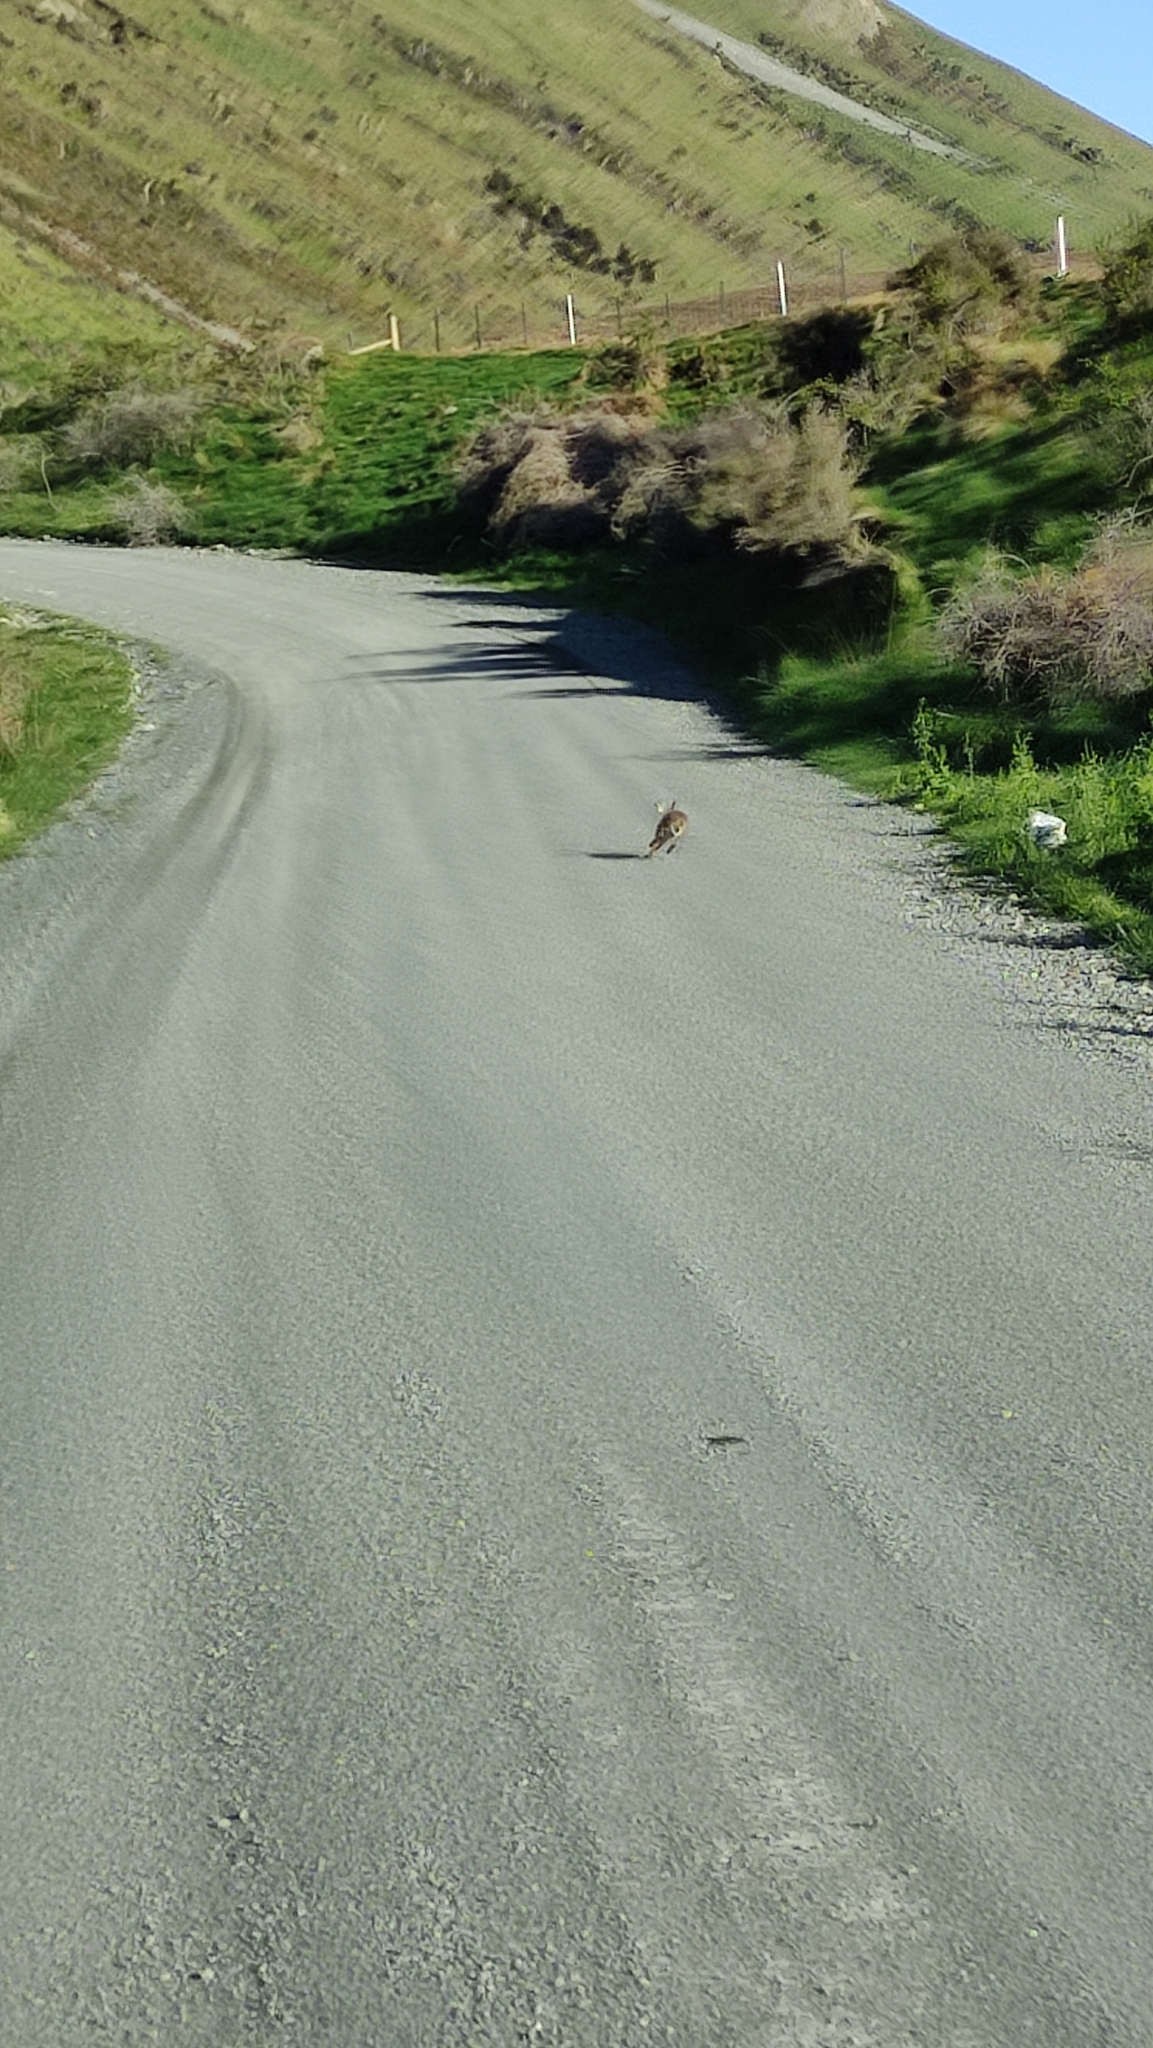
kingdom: Animalia
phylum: Chordata
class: Mammalia
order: Lagomorpha
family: Leporidae
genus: Lepus
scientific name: Lepus europaeus
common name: European hare
